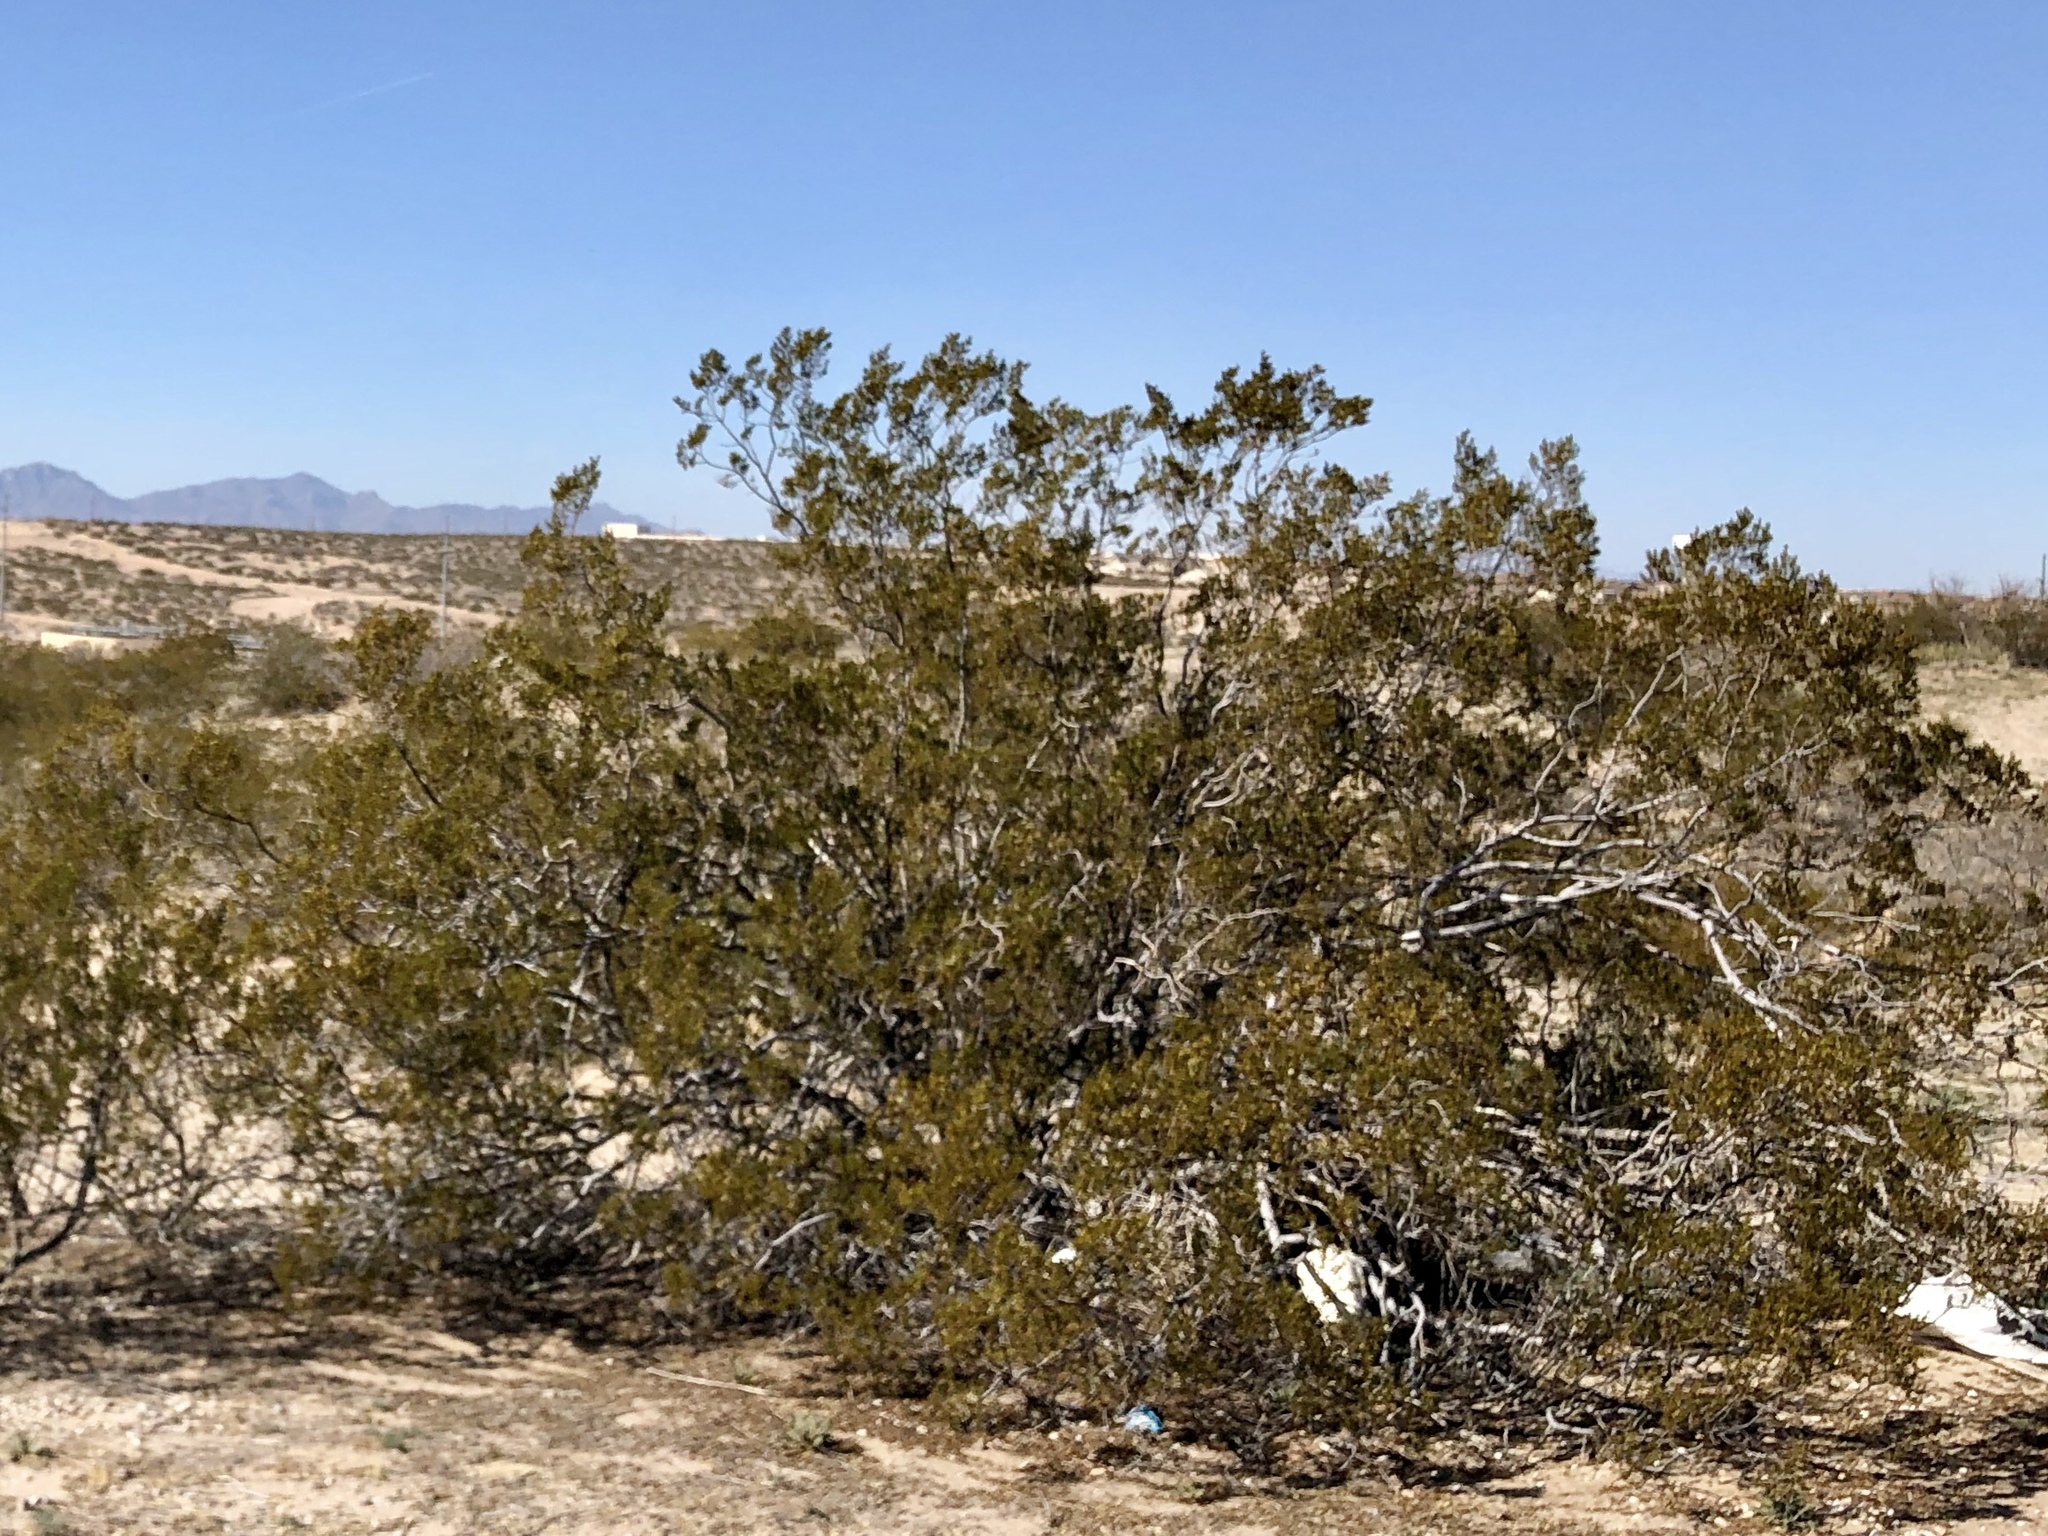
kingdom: Plantae
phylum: Tracheophyta
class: Magnoliopsida
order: Zygophyllales
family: Zygophyllaceae
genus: Larrea
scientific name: Larrea tridentata
